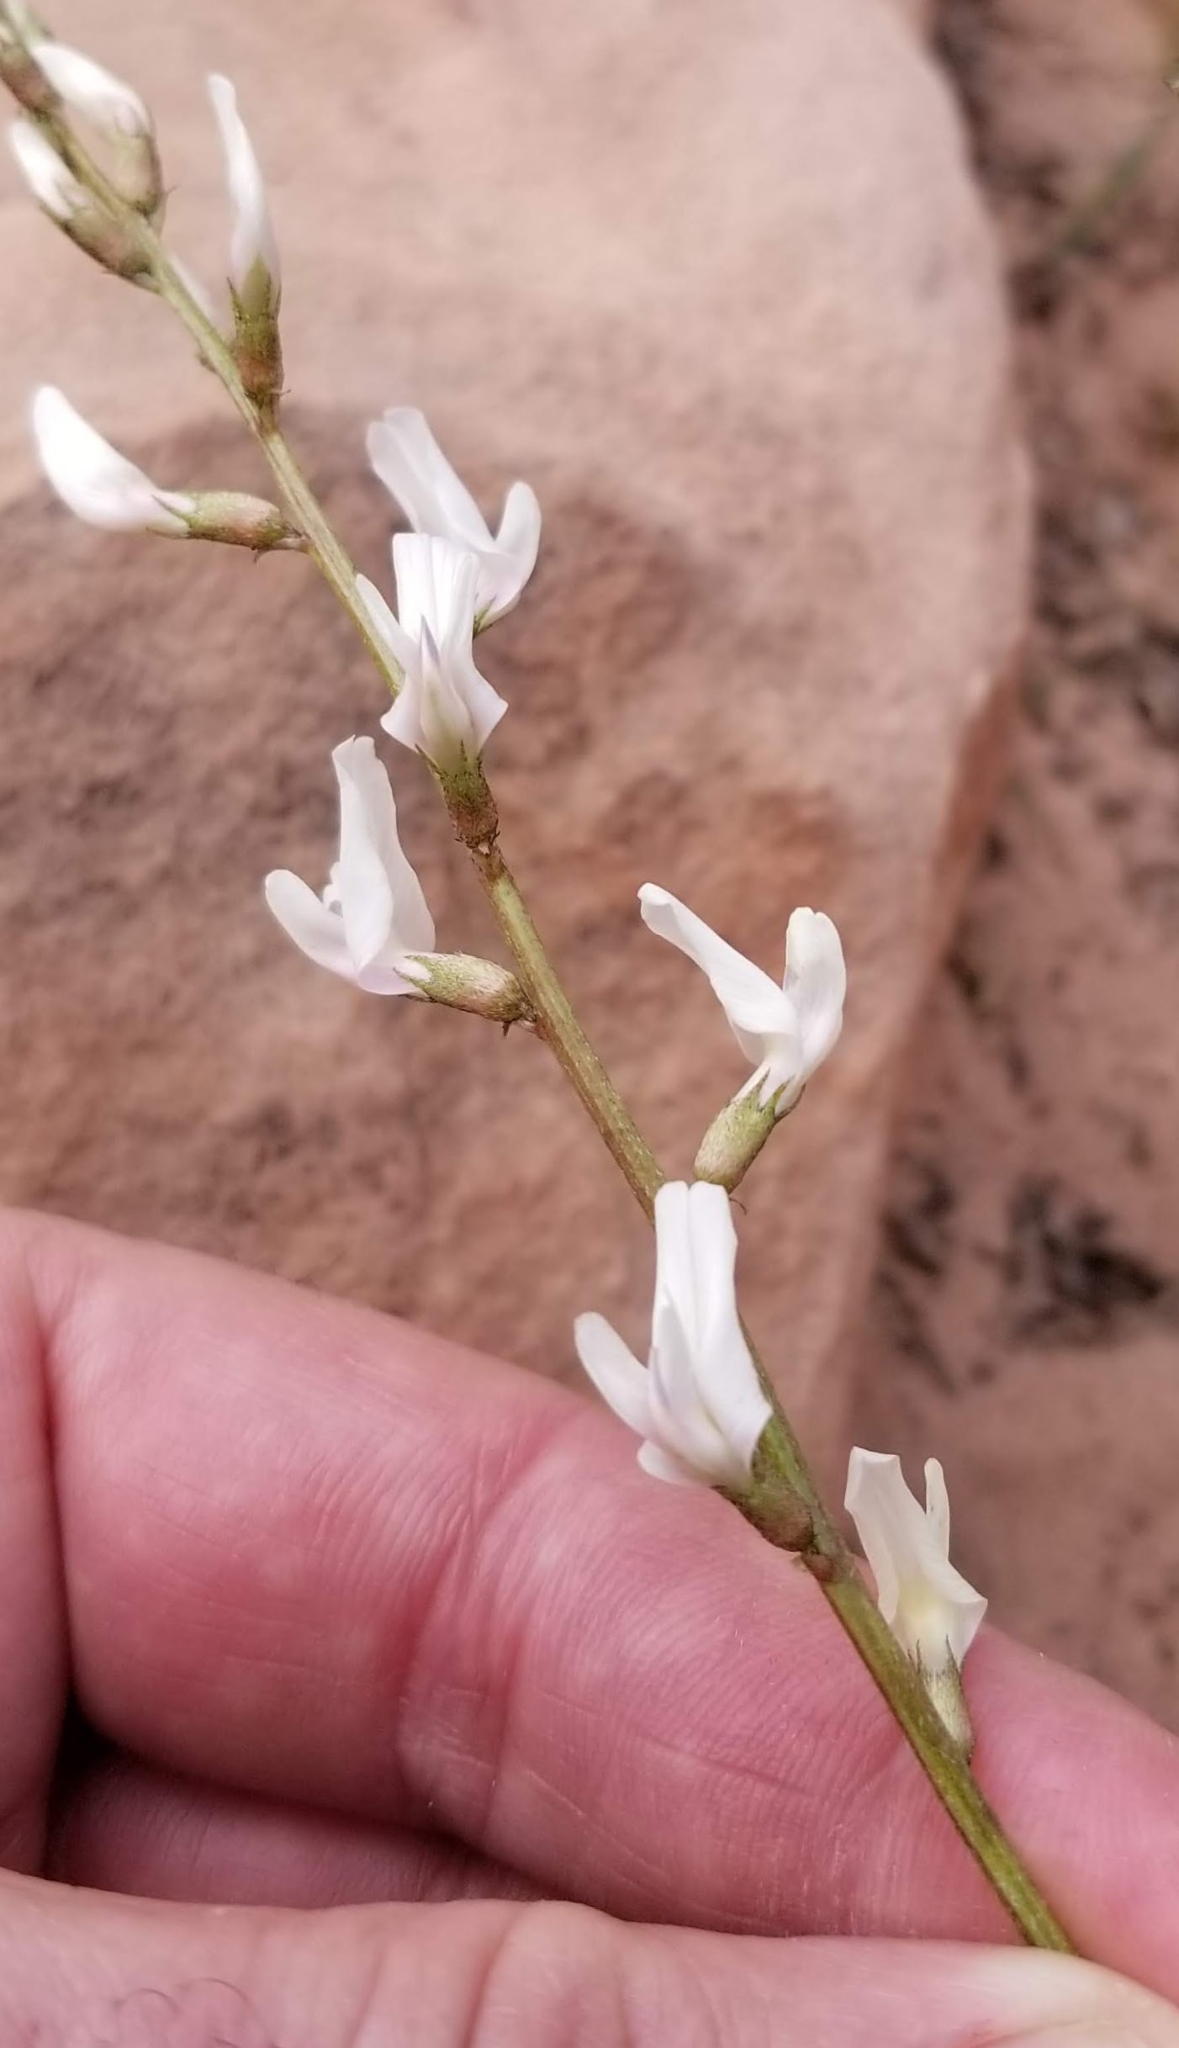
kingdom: Plantae
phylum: Tracheophyta
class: Magnoliopsida
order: Fabales
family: Fabaceae
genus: Astragalus
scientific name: Astragalus remotus
